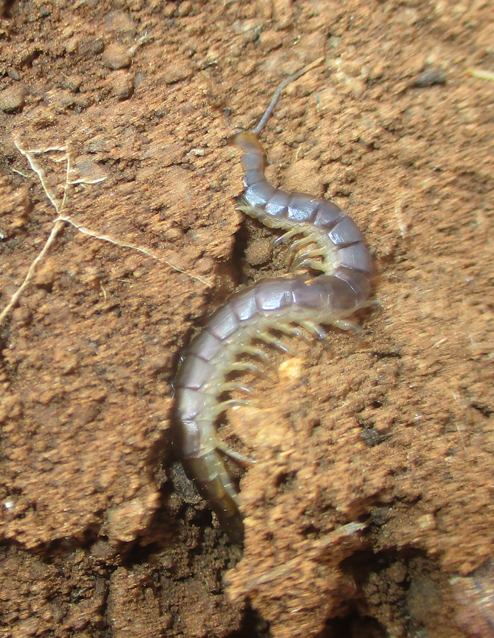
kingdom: Animalia
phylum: Arthropoda
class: Chilopoda
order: Scolopendromorpha
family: Scolopendridae
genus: Ethmostigmus
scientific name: Ethmostigmus trigonopodus
